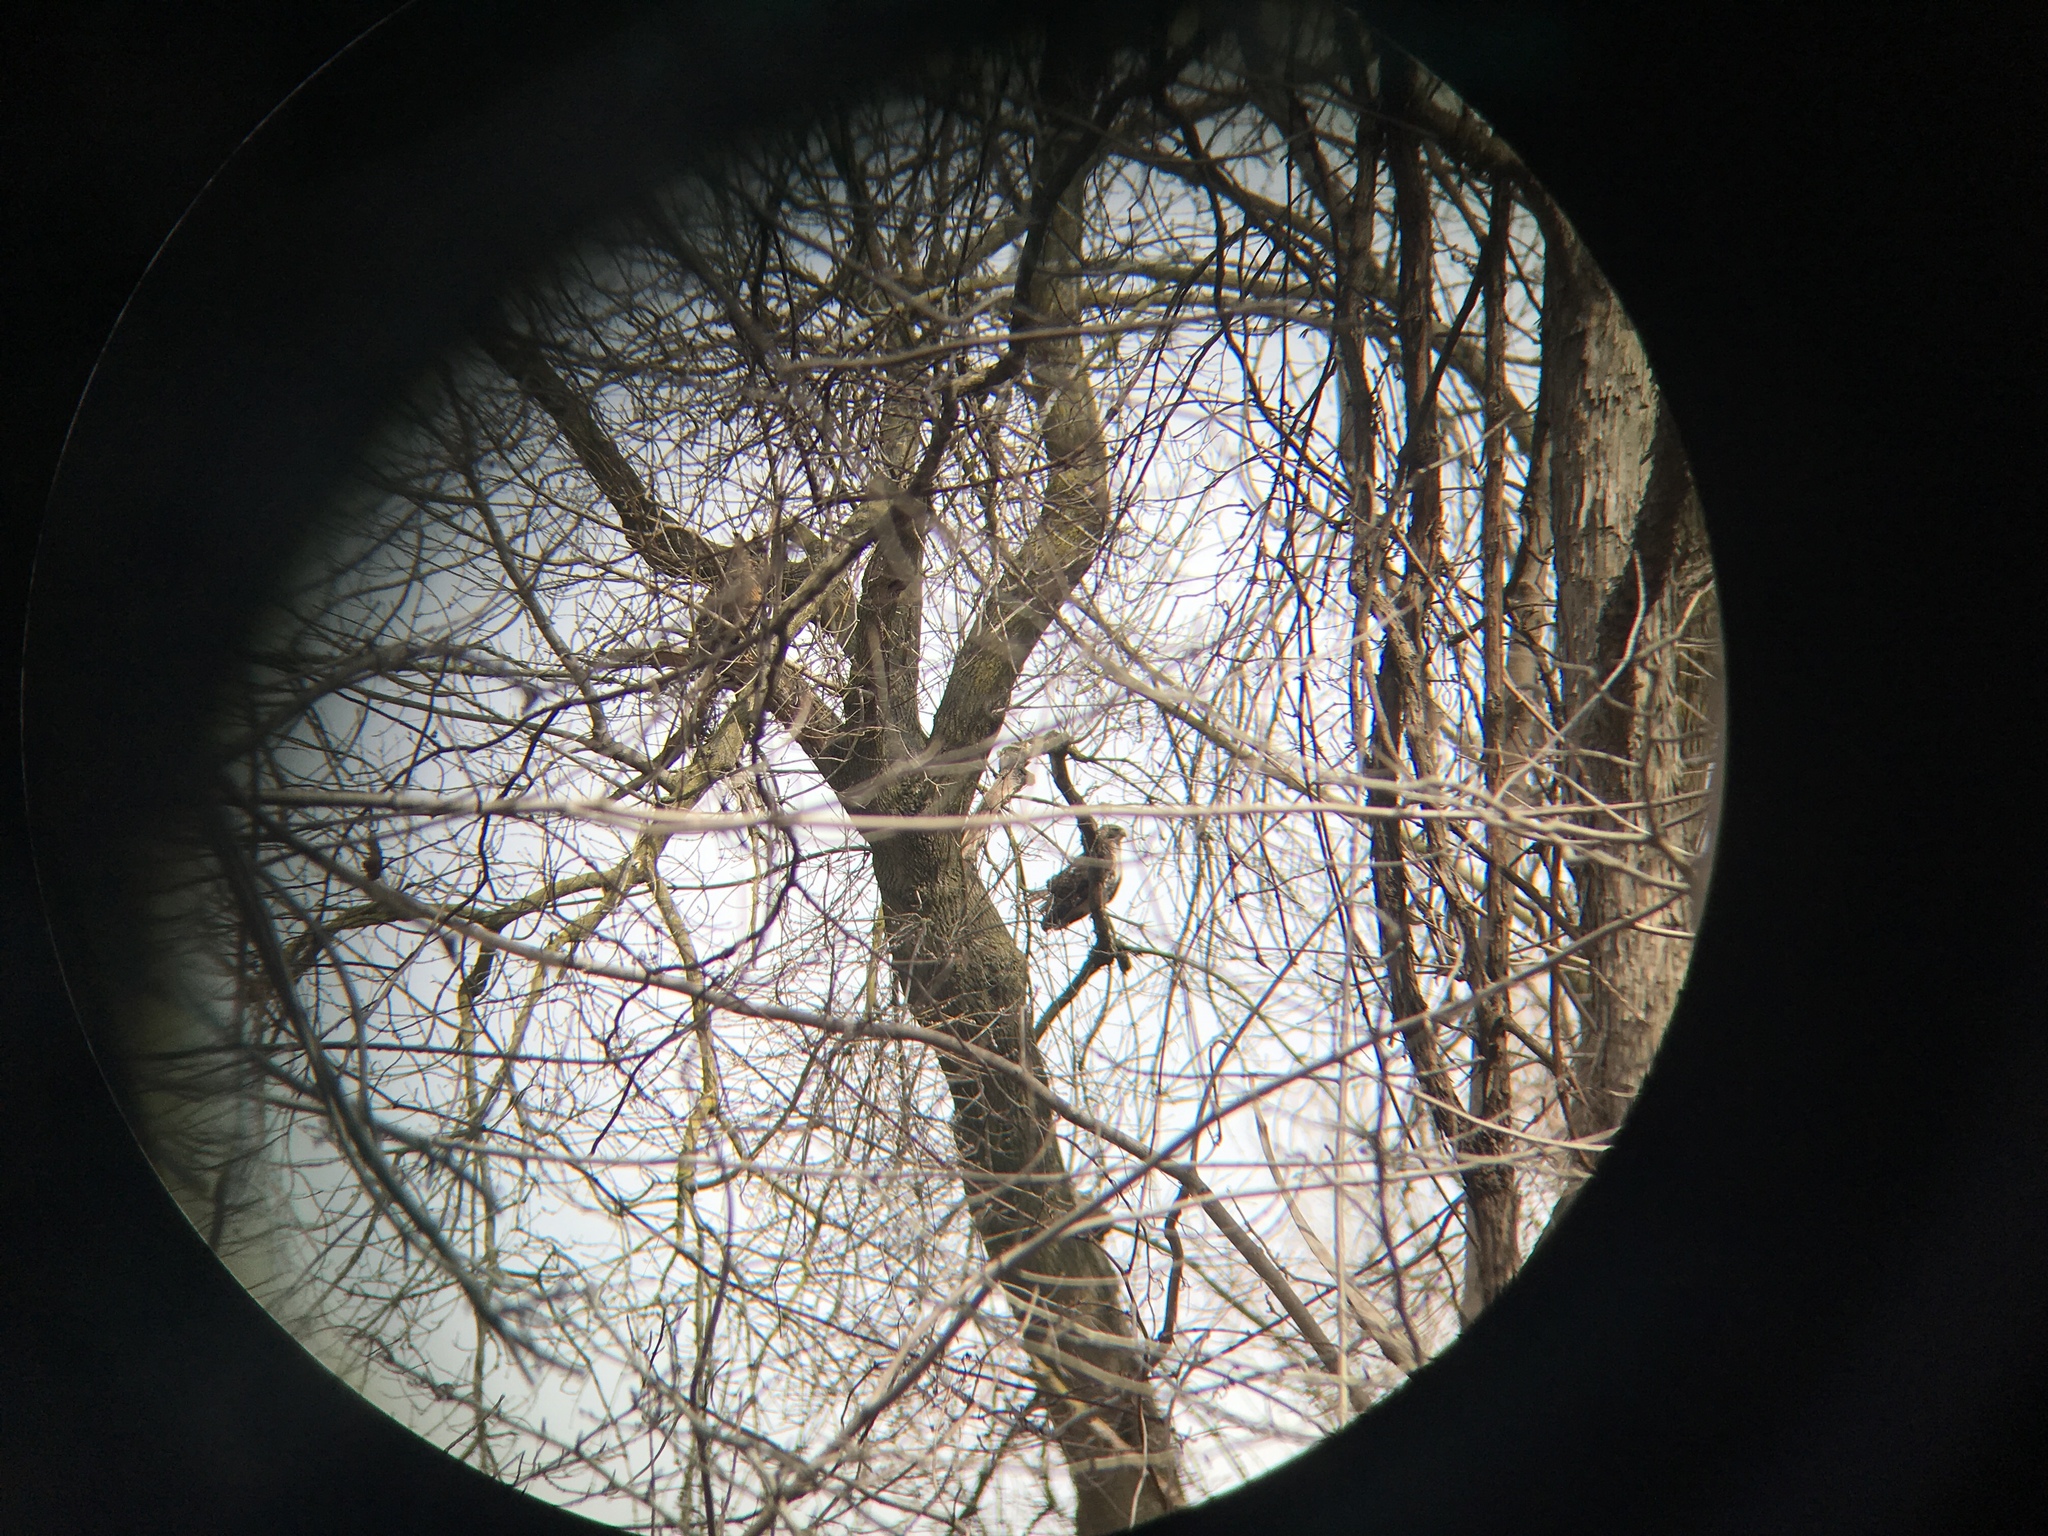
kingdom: Animalia
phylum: Chordata
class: Aves
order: Accipitriformes
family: Accipitridae
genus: Buteo
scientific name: Buteo jamaicensis
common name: Red-tailed hawk
